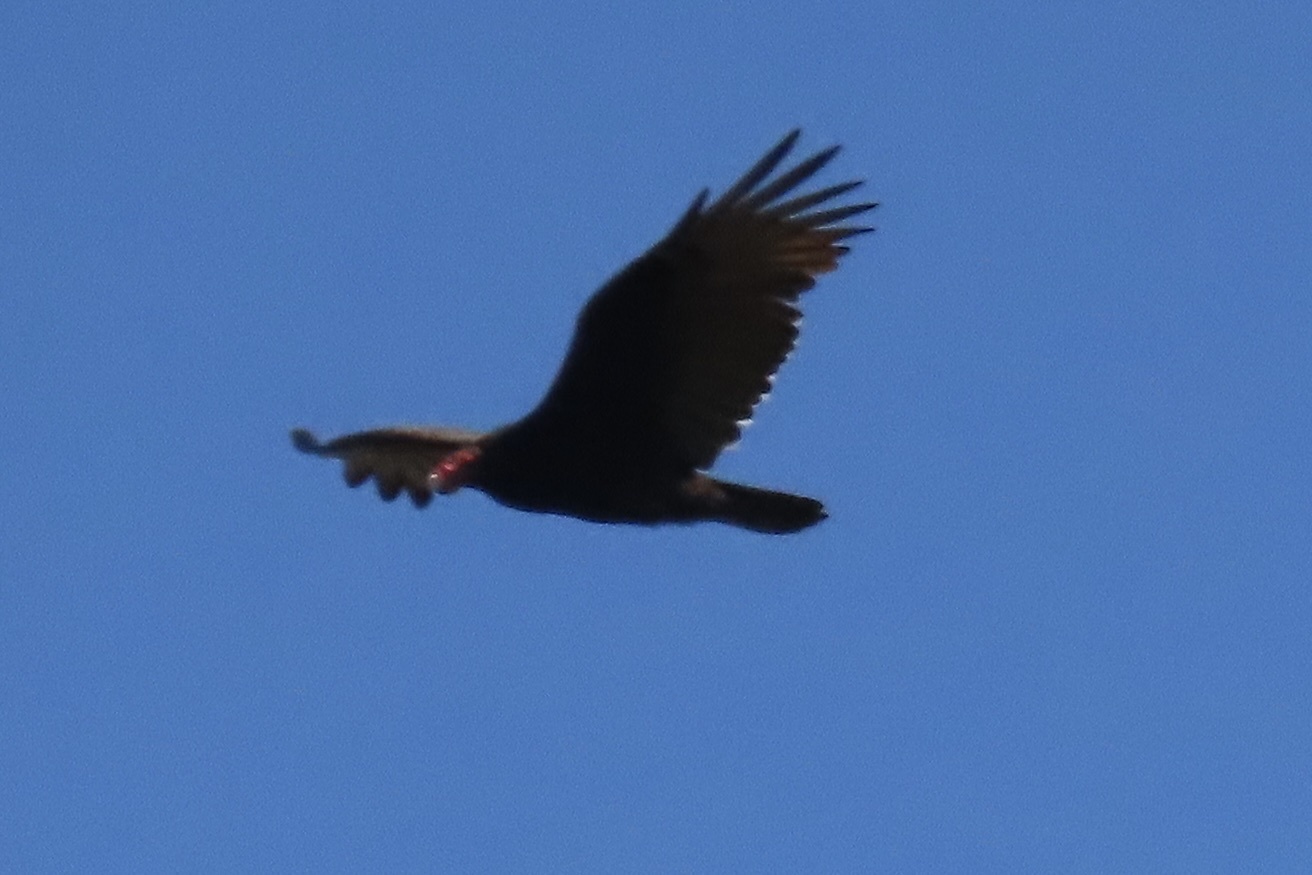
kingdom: Animalia
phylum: Chordata
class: Aves
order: Accipitriformes
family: Cathartidae
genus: Cathartes
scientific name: Cathartes aura
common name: Turkey vulture
